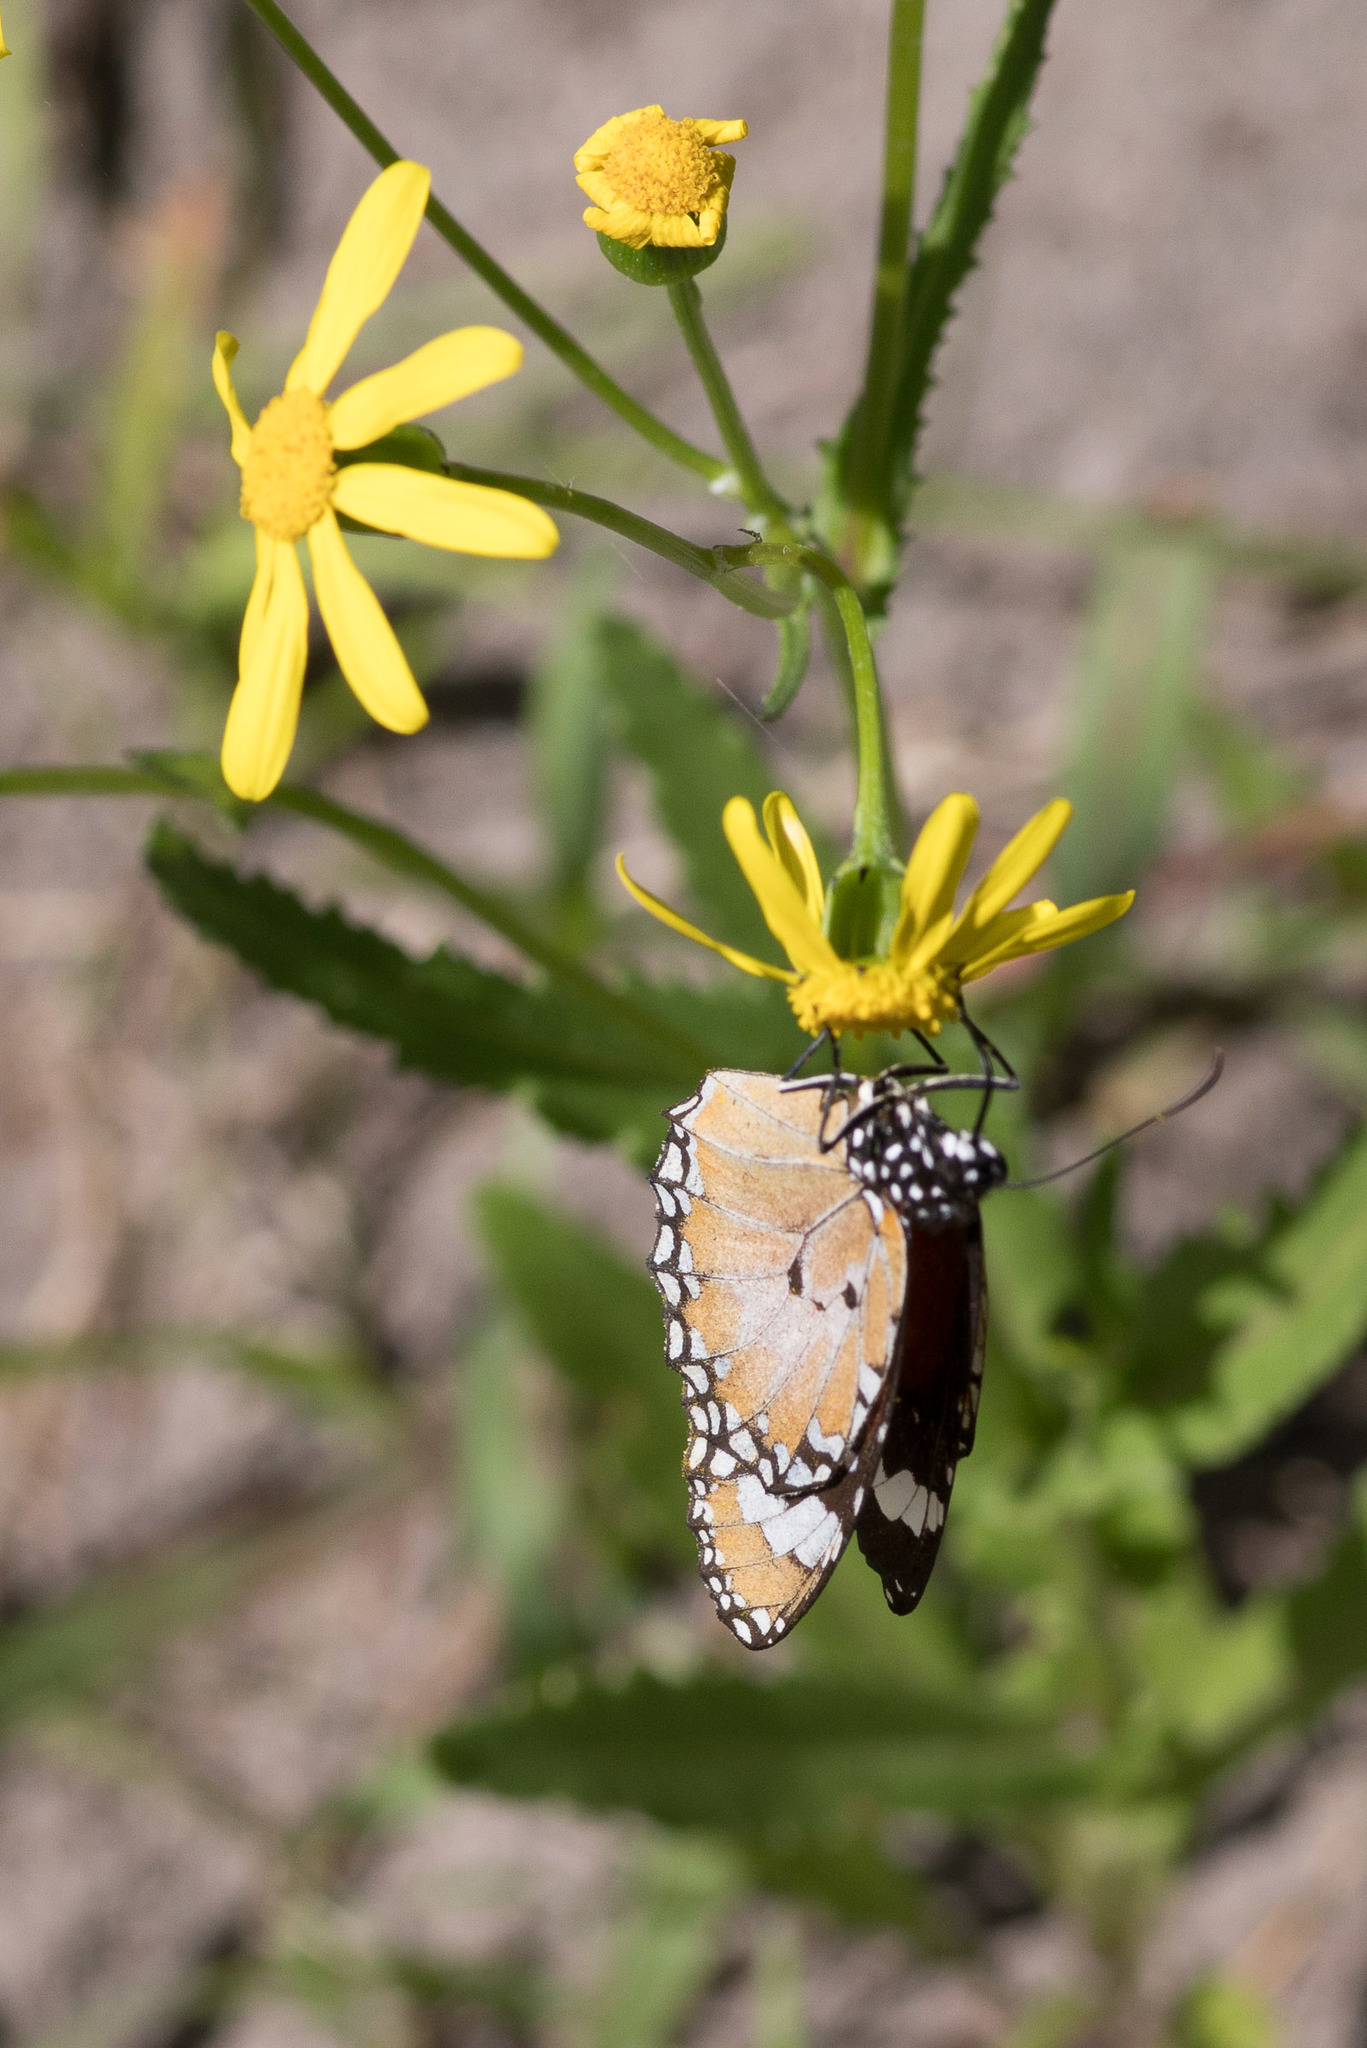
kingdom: Animalia
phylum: Arthropoda
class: Insecta
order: Lepidoptera
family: Nymphalidae
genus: Danaus
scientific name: Danaus chrysippus
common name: Plain tiger
